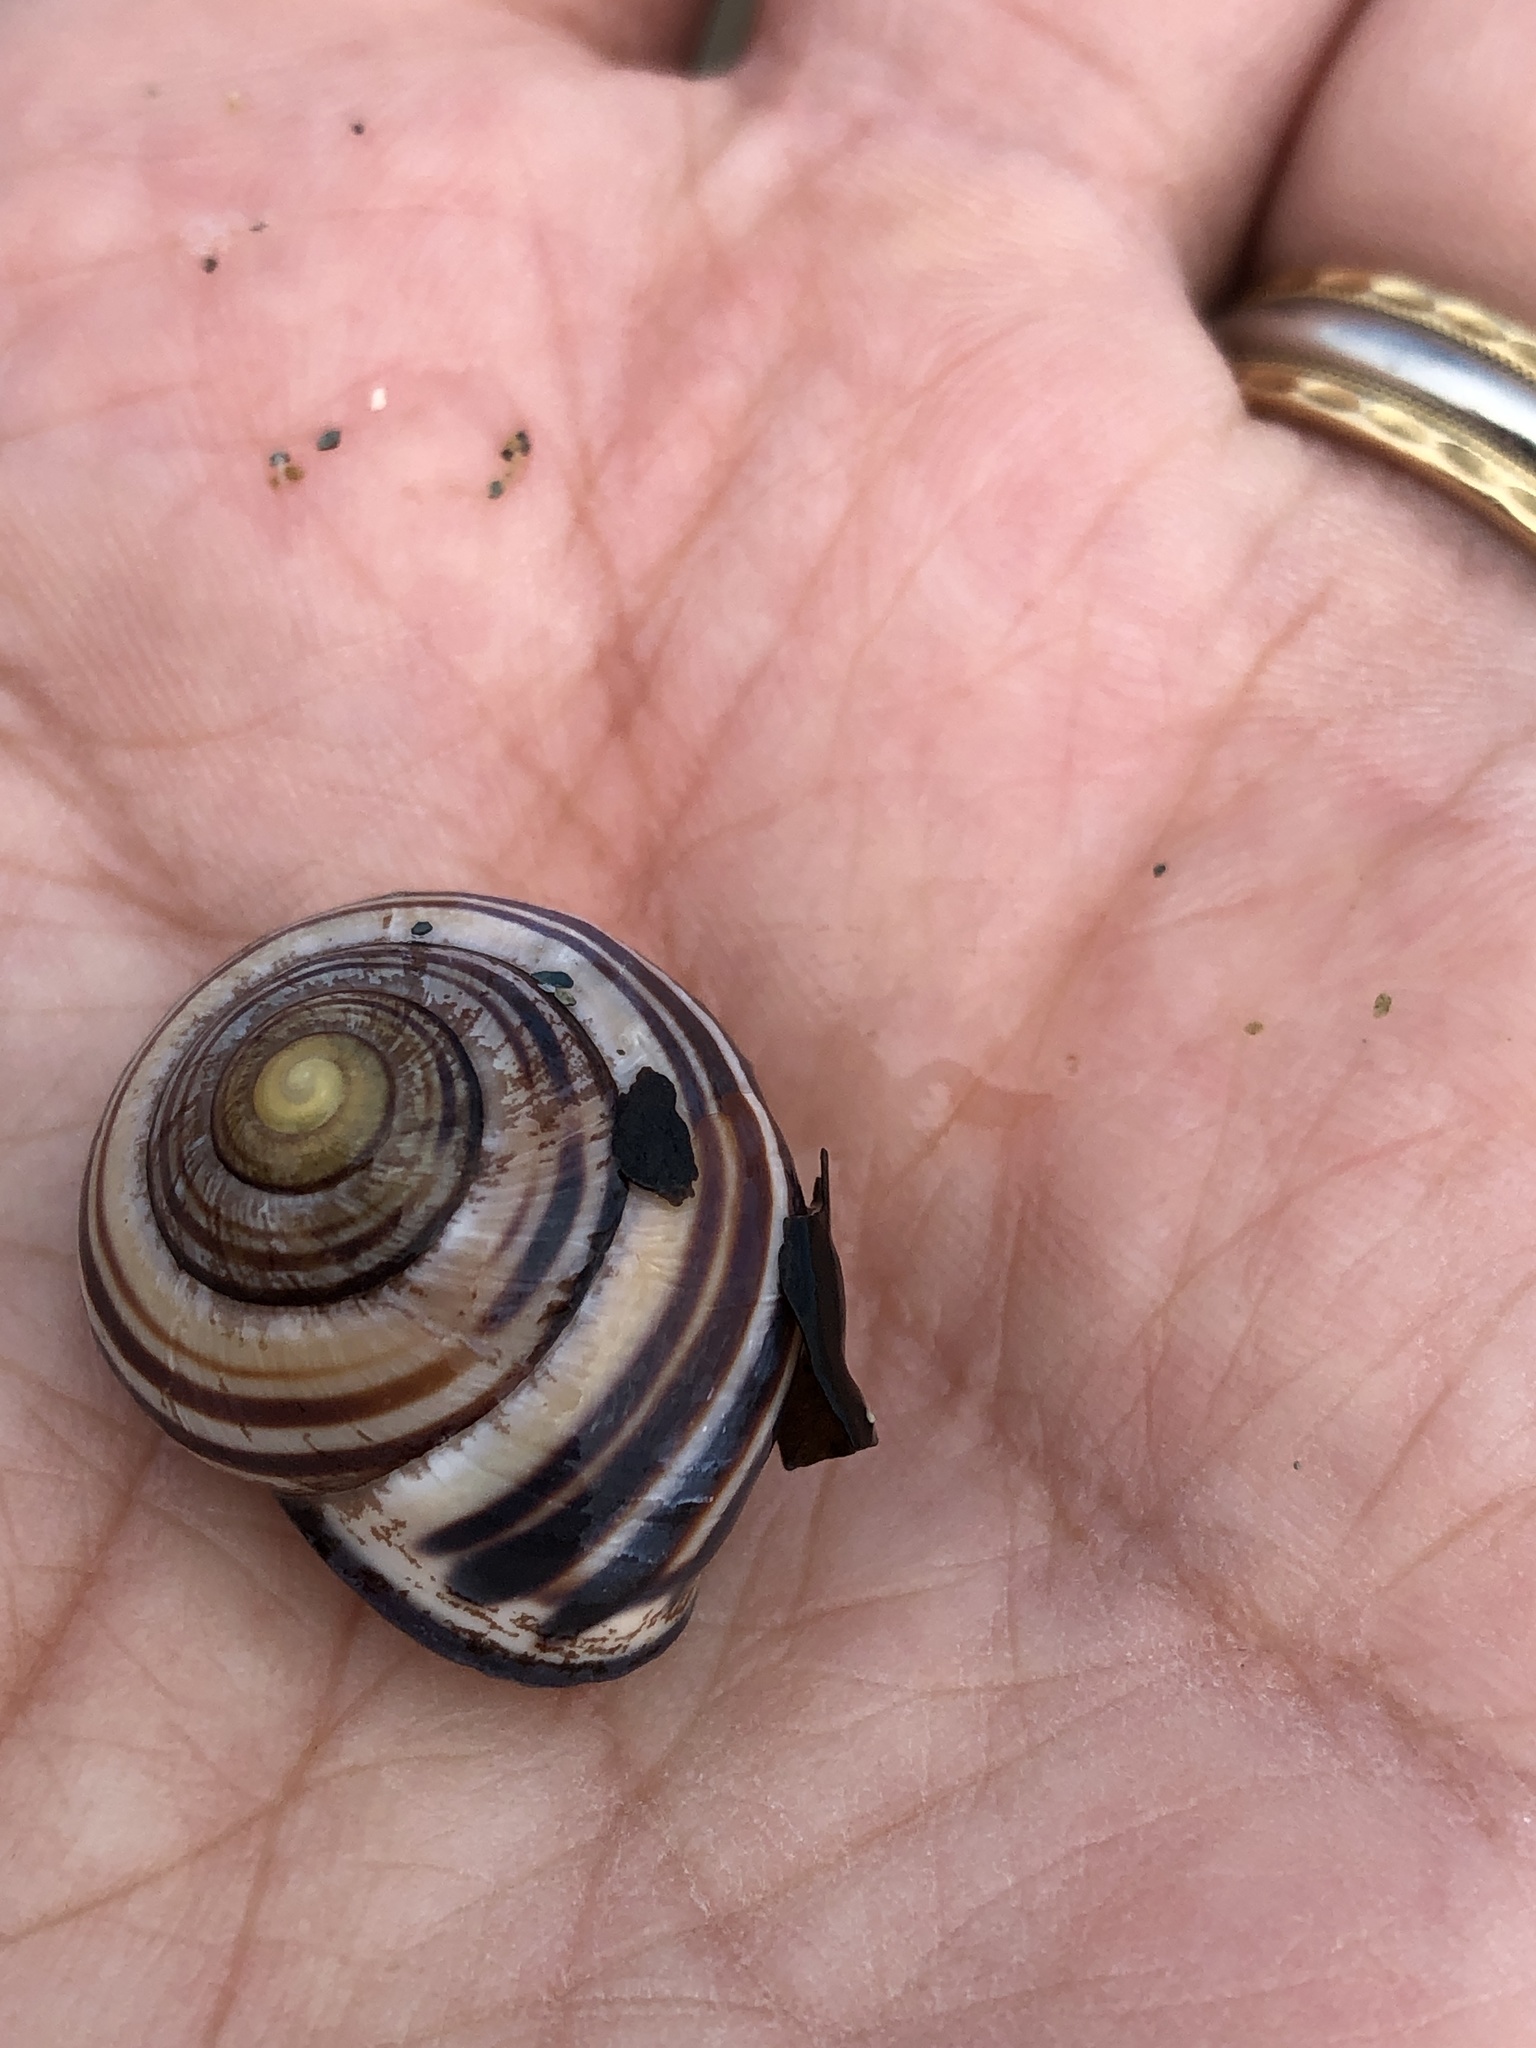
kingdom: Animalia
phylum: Mollusca
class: Gastropoda
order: Stylommatophora
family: Helicidae
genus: Cepaea
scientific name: Cepaea nemoralis
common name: Grovesnail
